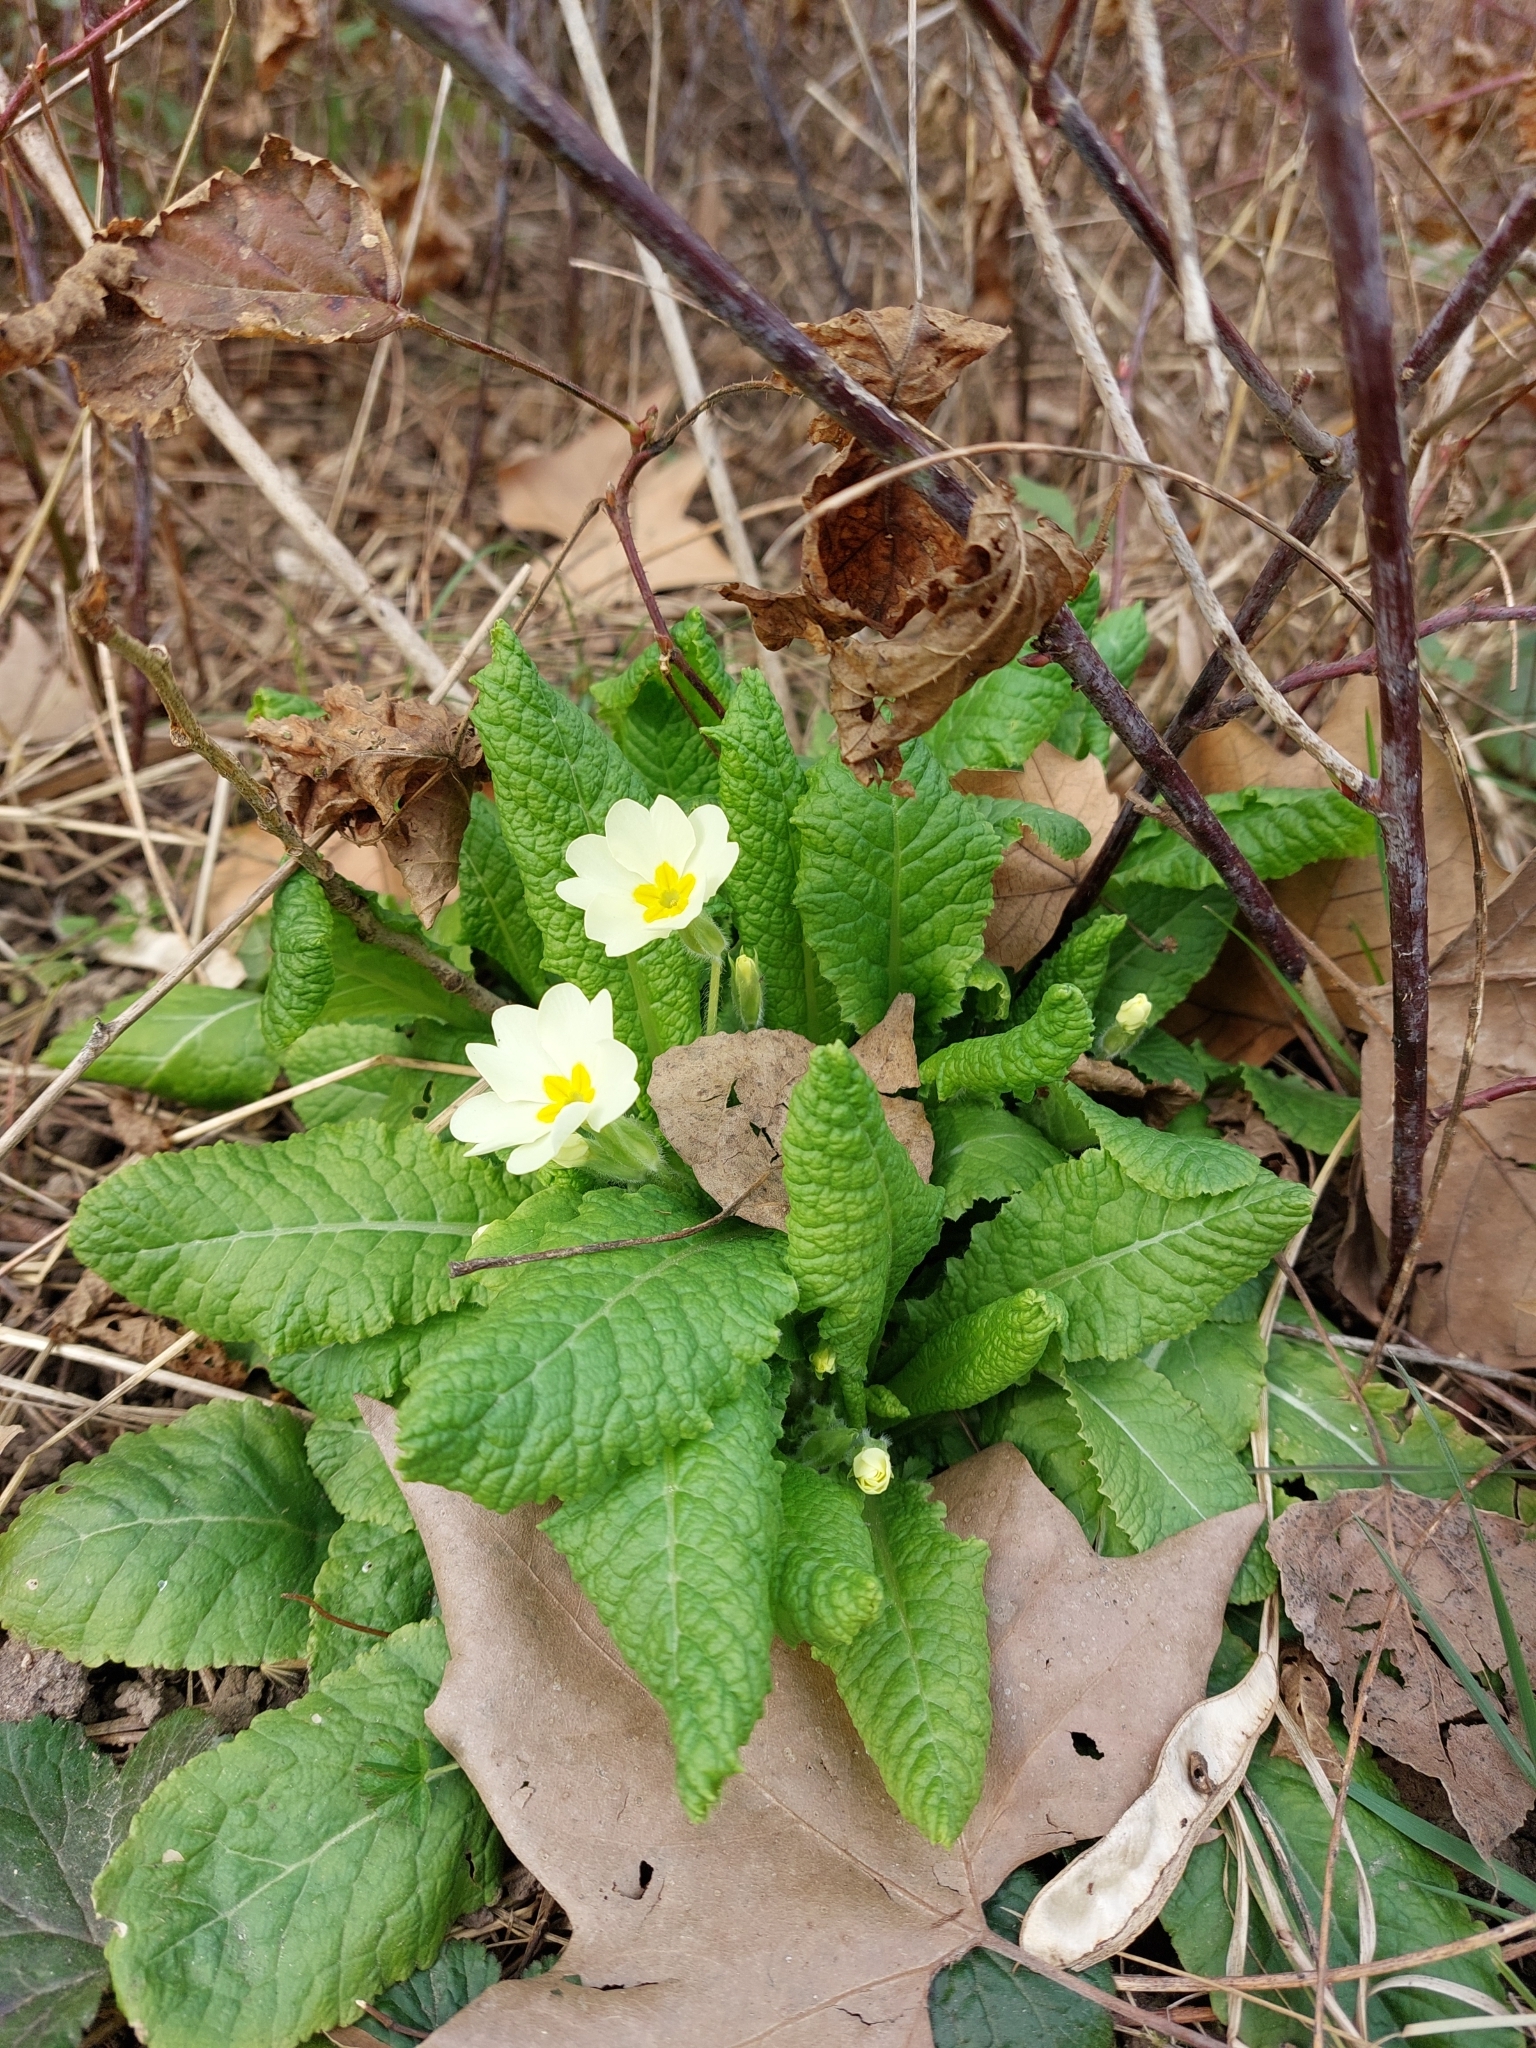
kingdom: Plantae
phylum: Tracheophyta
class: Magnoliopsida
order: Ericales
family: Primulaceae
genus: Primula
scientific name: Primula vulgaris
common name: Primrose
